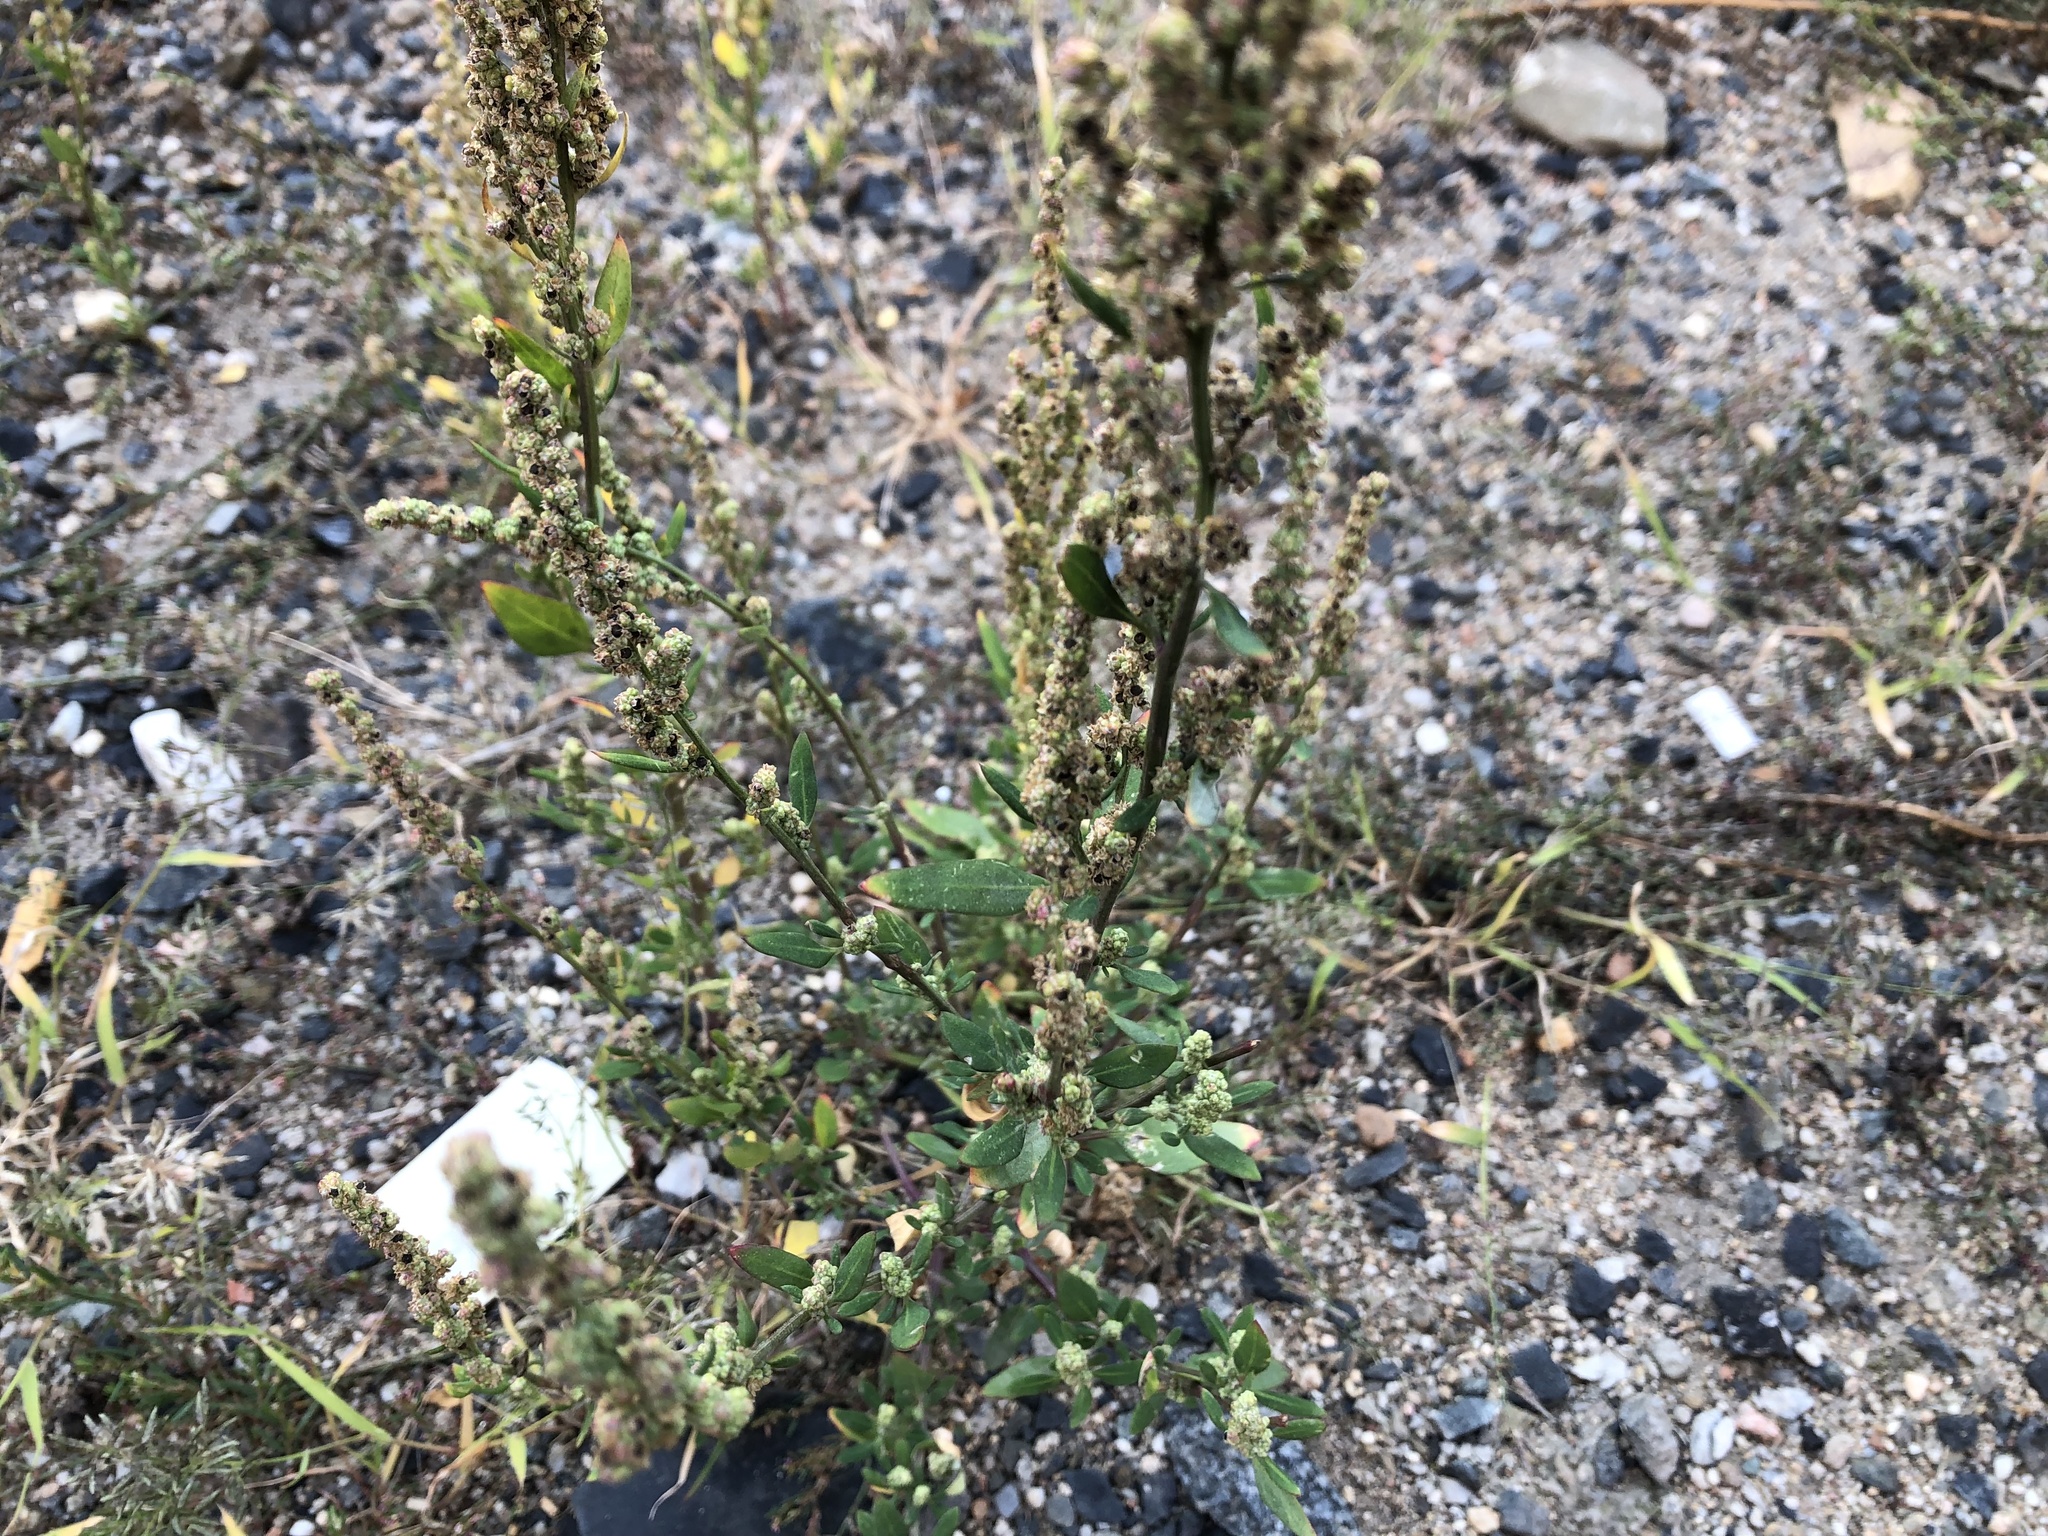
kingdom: Plantae
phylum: Tracheophyta
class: Magnoliopsida
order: Caryophyllales
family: Amaranthaceae
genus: Chenopodium
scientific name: Chenopodium album
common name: Fat-hen
